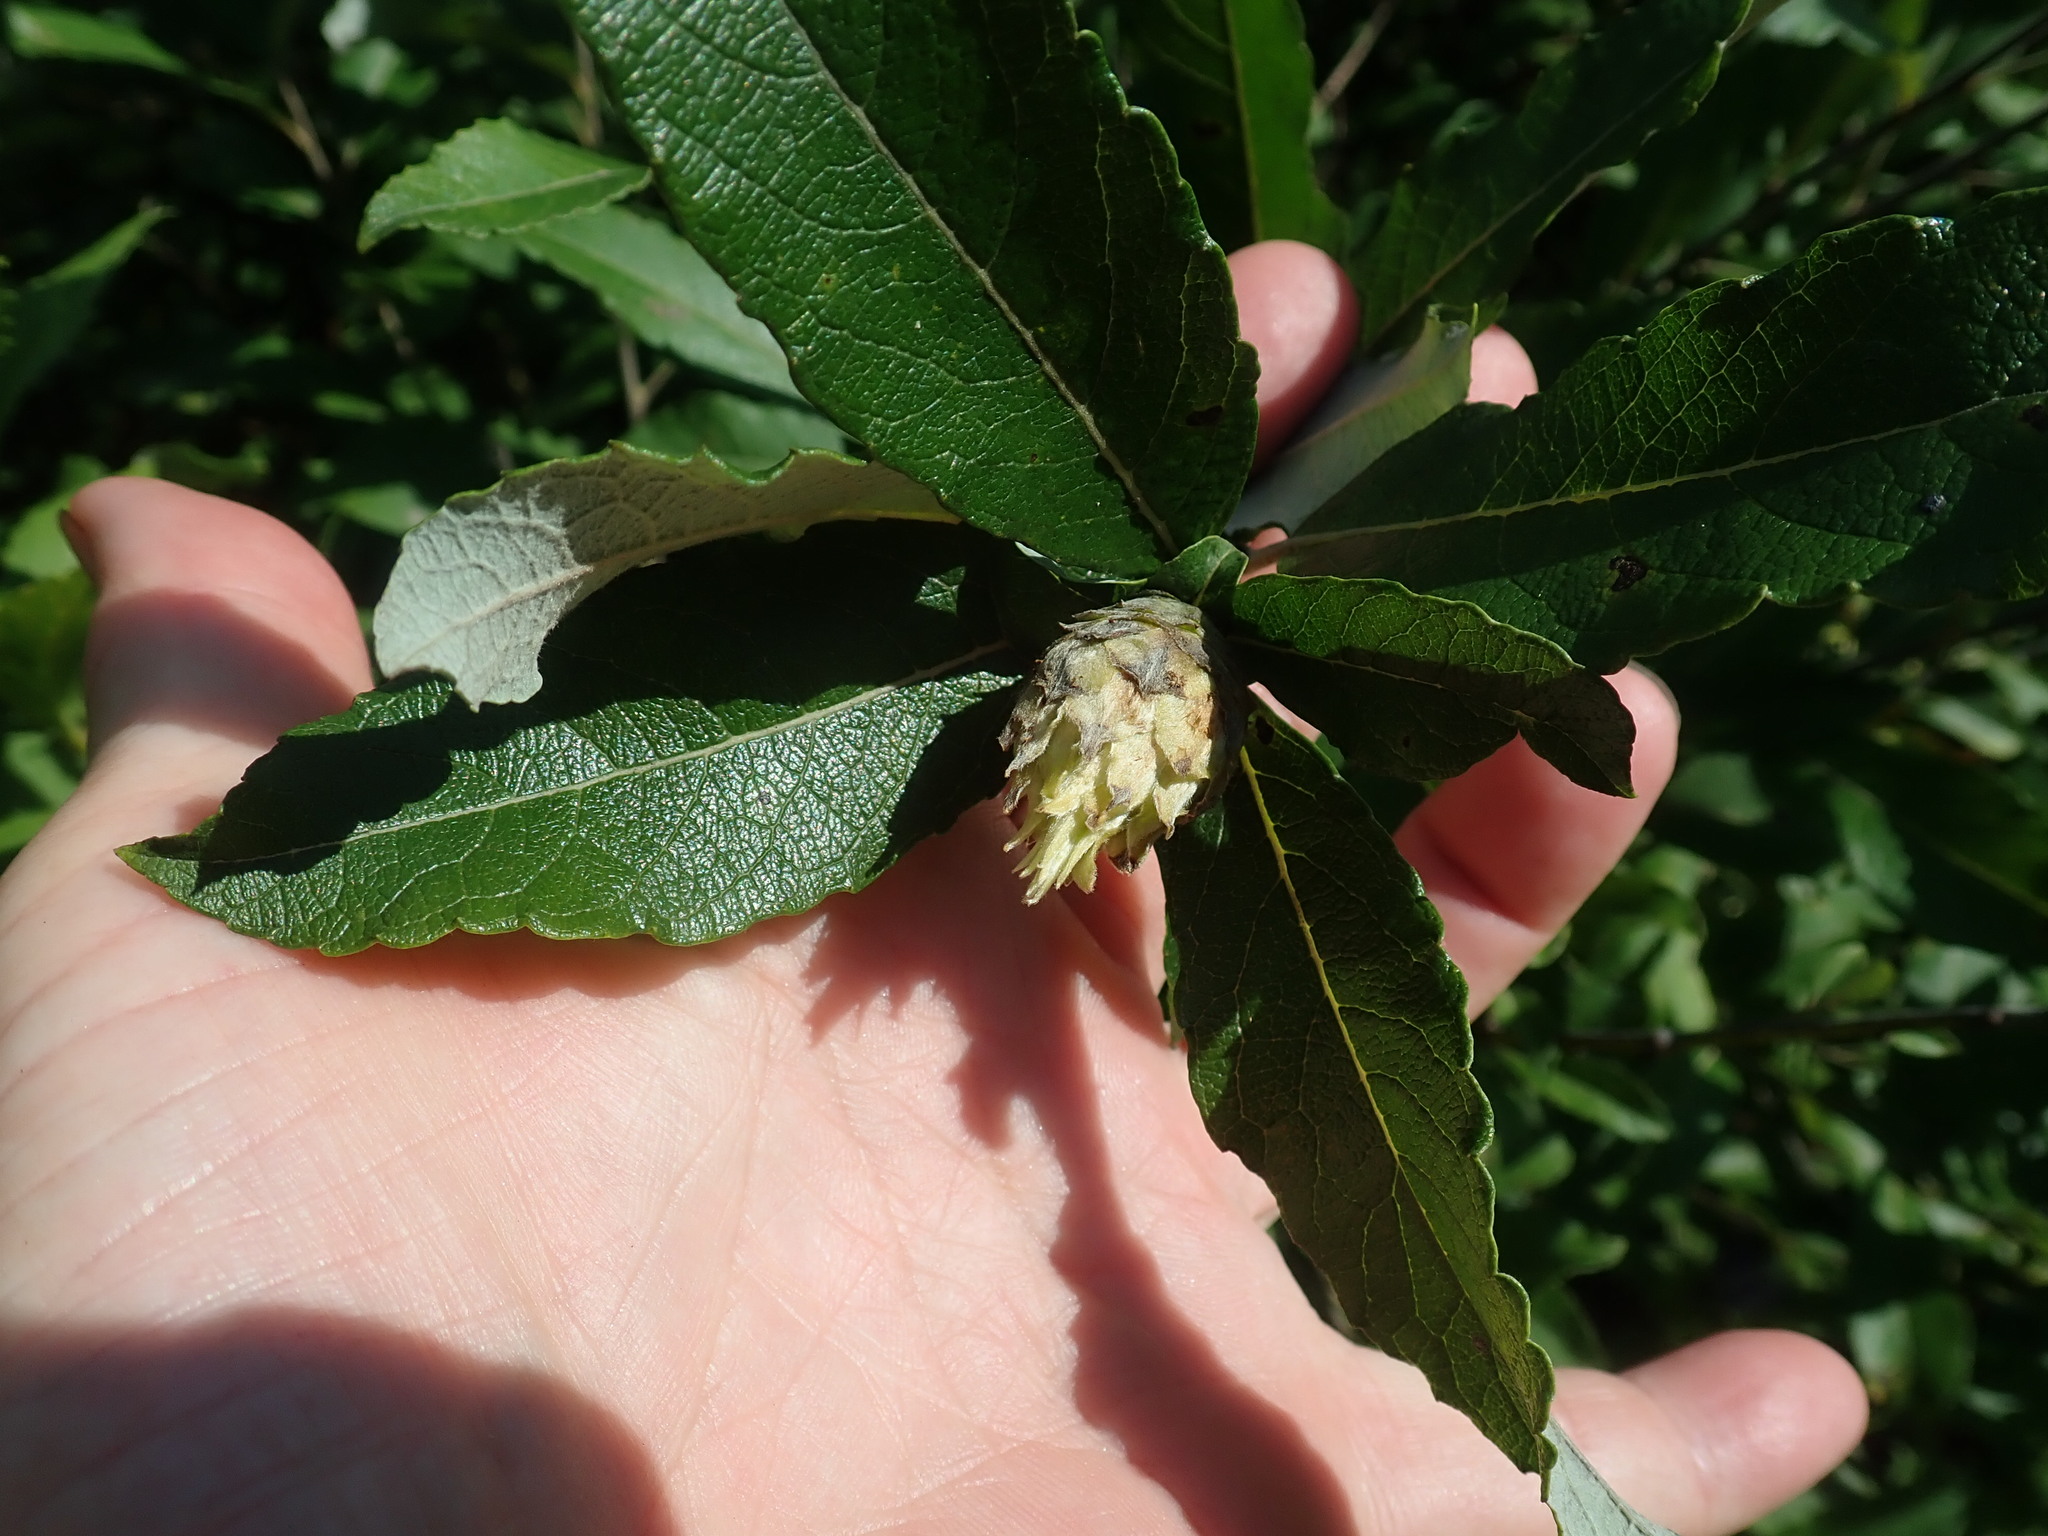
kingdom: Animalia
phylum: Arthropoda
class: Insecta
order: Diptera
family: Cecidomyiidae
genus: Rabdophaga
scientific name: Rabdophaga strobiloides
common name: Willow pinecone gall midge
